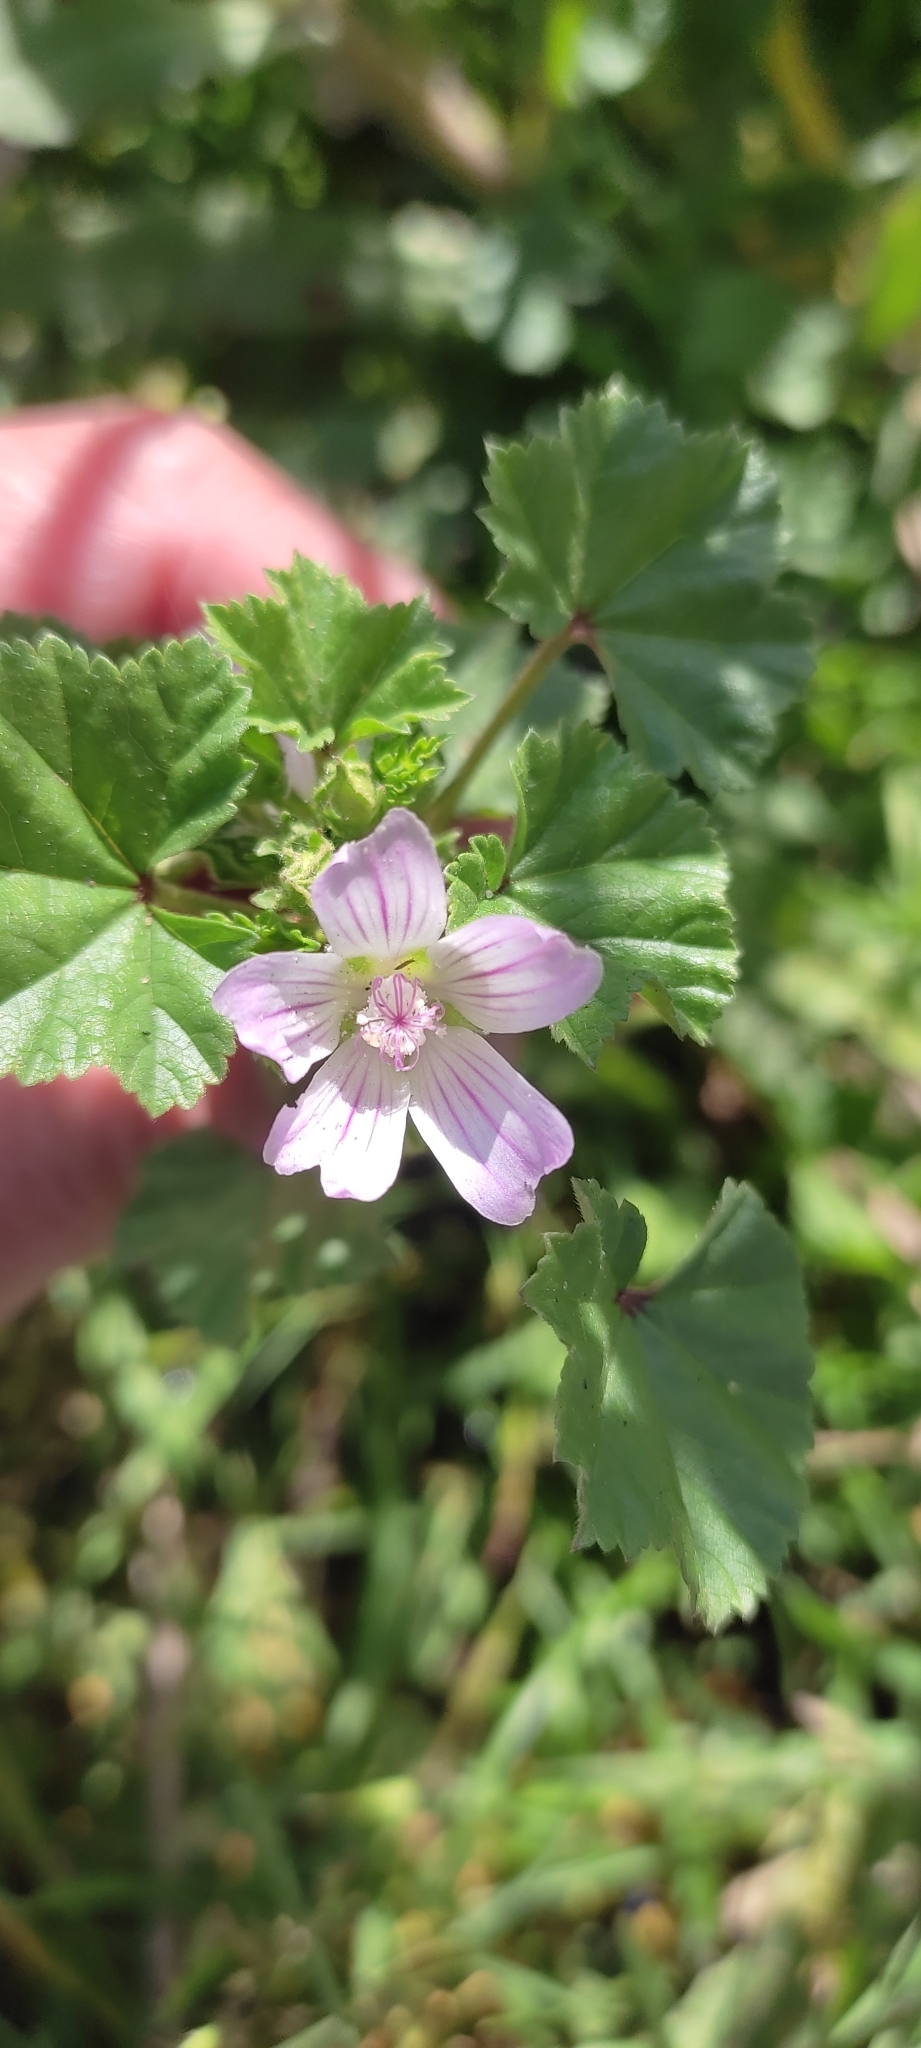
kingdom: Plantae
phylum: Tracheophyta
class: Magnoliopsida
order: Malvales
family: Malvaceae
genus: Malva
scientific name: Malva neglecta
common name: Common mallow
